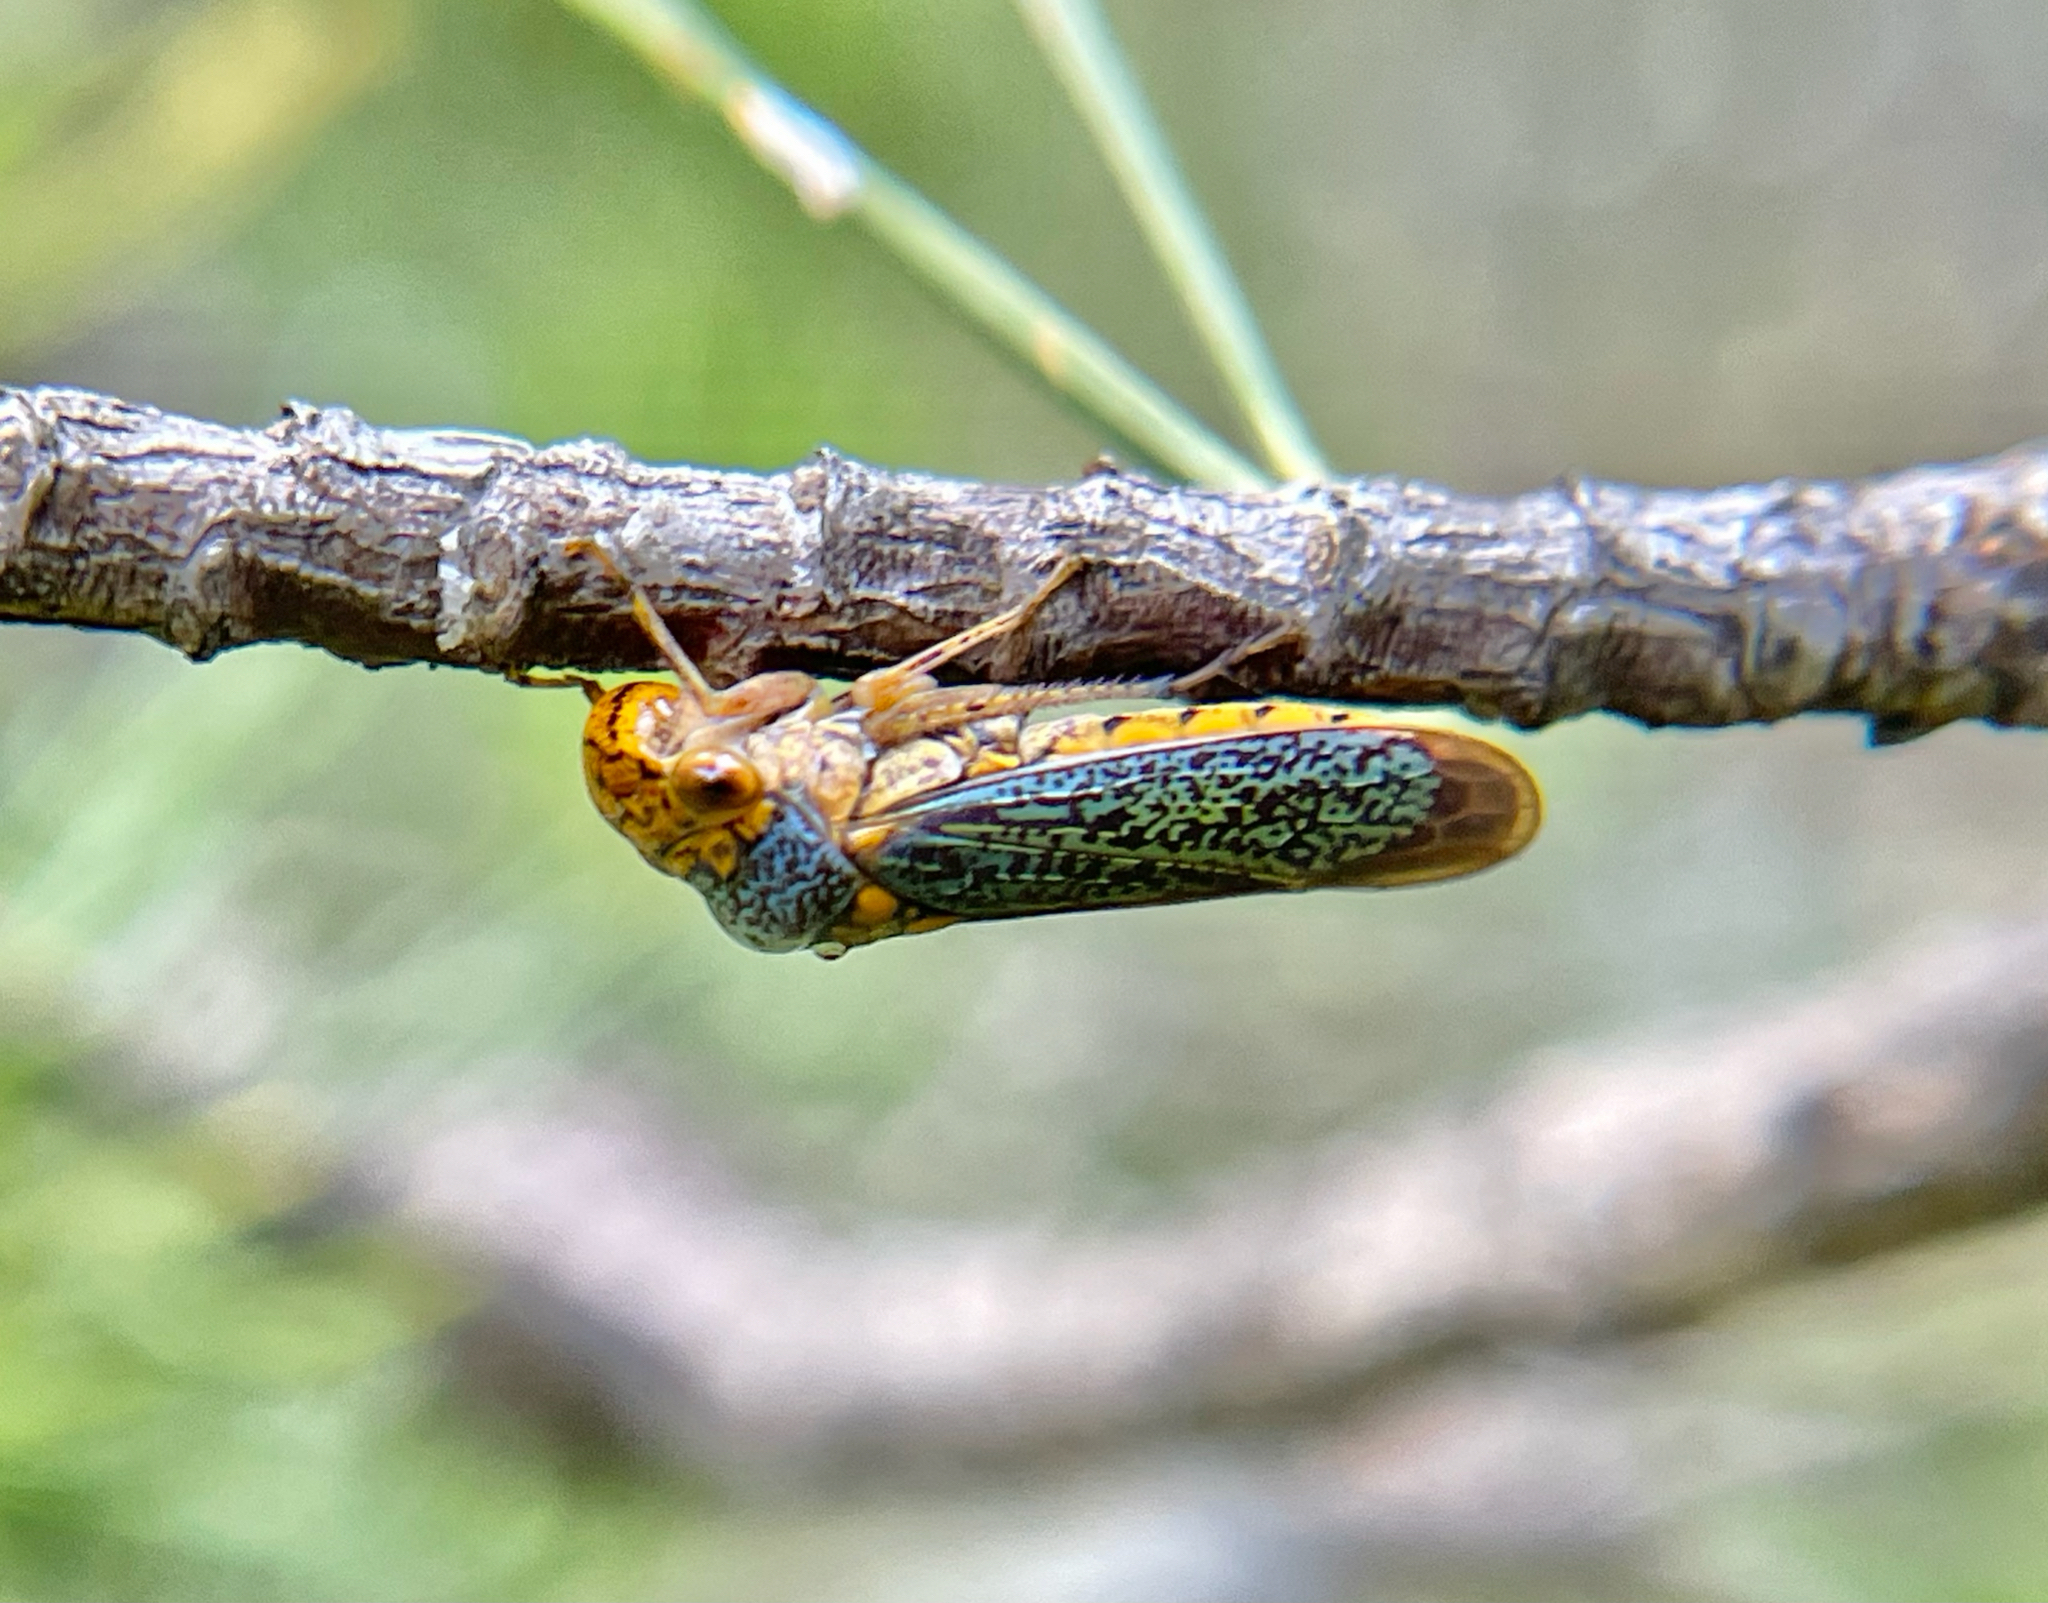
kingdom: Animalia
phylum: Arthropoda
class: Insecta
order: Hemiptera
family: Cicadellidae
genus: Oncometopia
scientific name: Oncometopia orbona
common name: Broad-headed sharpshooter
